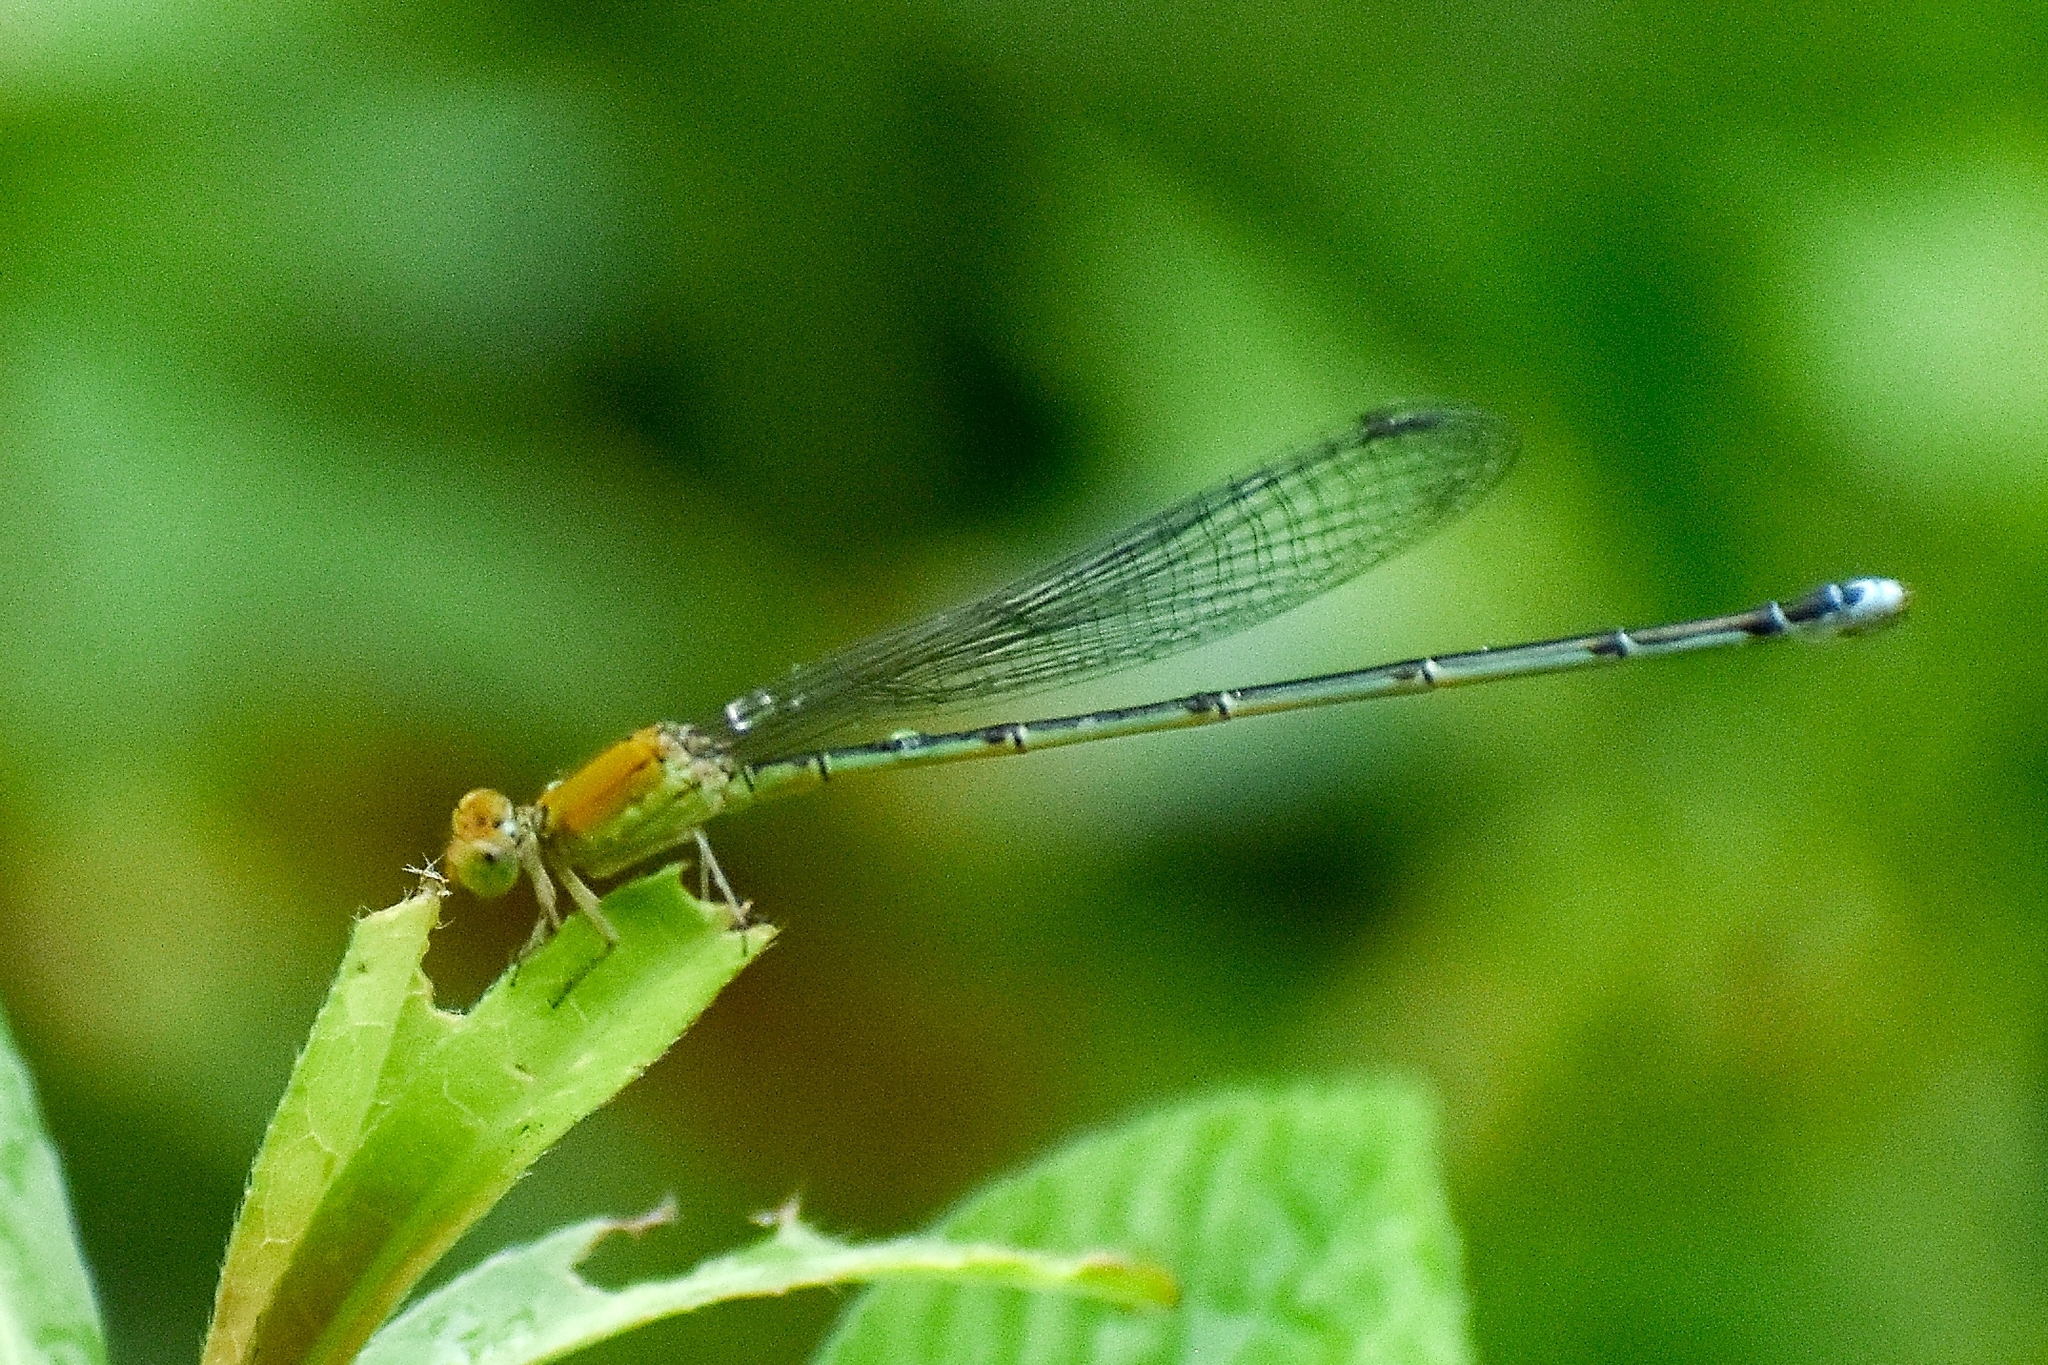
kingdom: Animalia
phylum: Arthropoda
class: Insecta
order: Odonata
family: Coenagrionidae
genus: Pseudagrion
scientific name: Pseudagrion rubriceps
